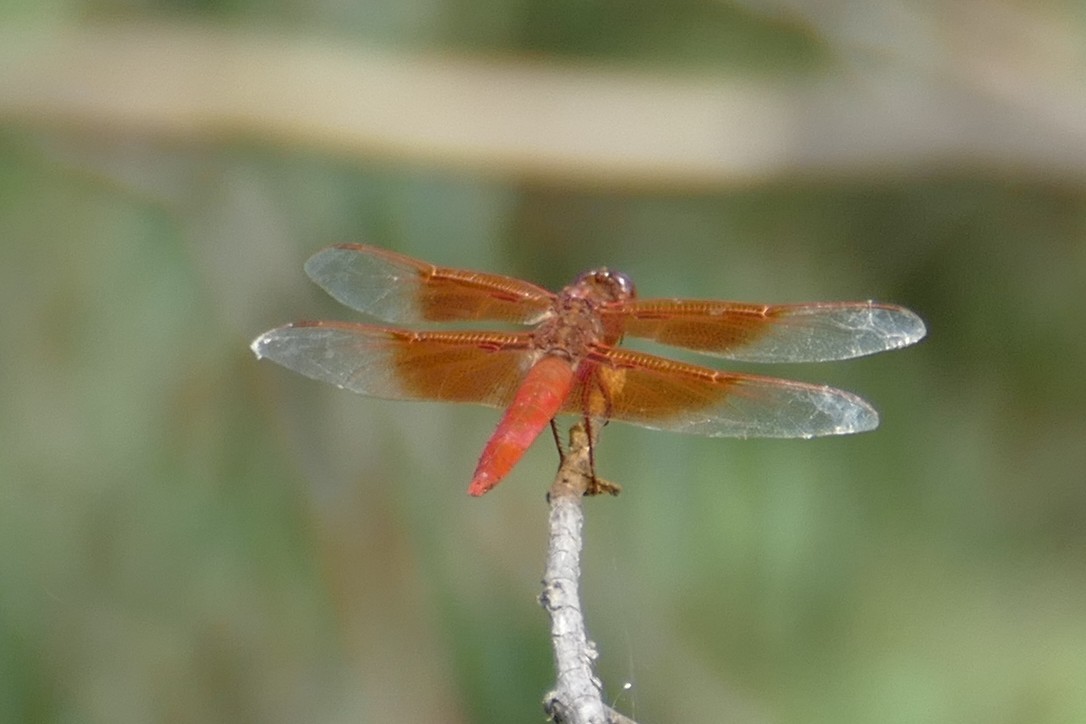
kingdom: Animalia
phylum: Arthropoda
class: Insecta
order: Odonata
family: Libellulidae
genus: Libellula
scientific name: Libellula saturata
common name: Flame skimmer
